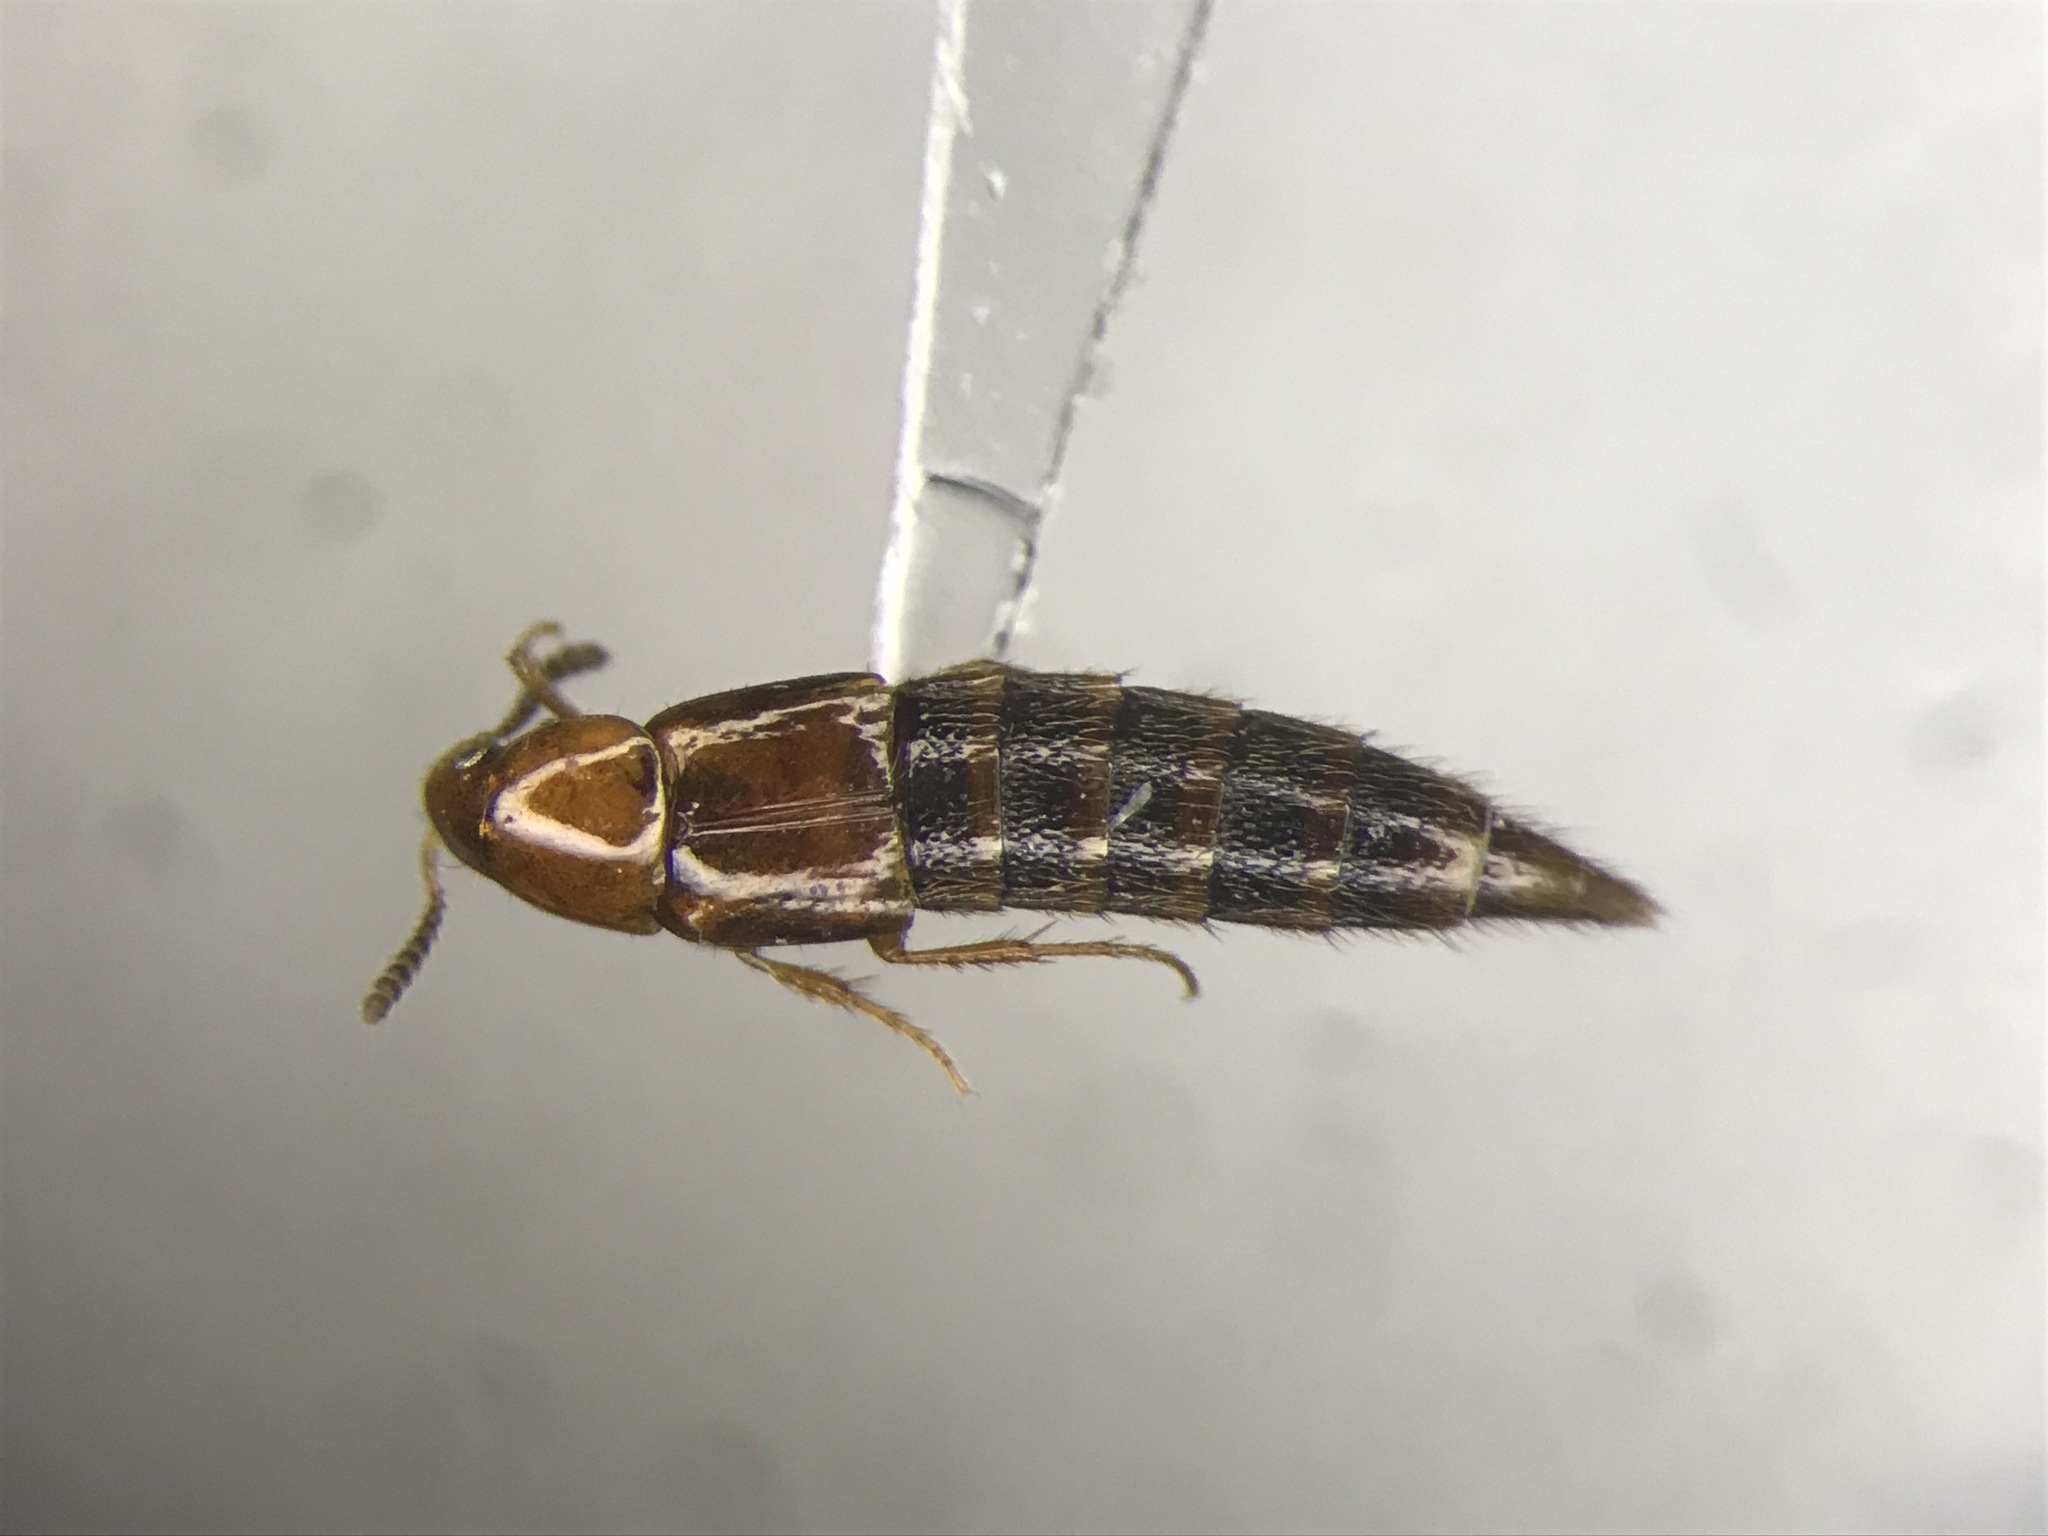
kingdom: Animalia
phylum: Arthropoda
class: Insecta
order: Coleoptera
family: Staphylinidae
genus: Mycetoporus
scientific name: Mycetoporus reichei
